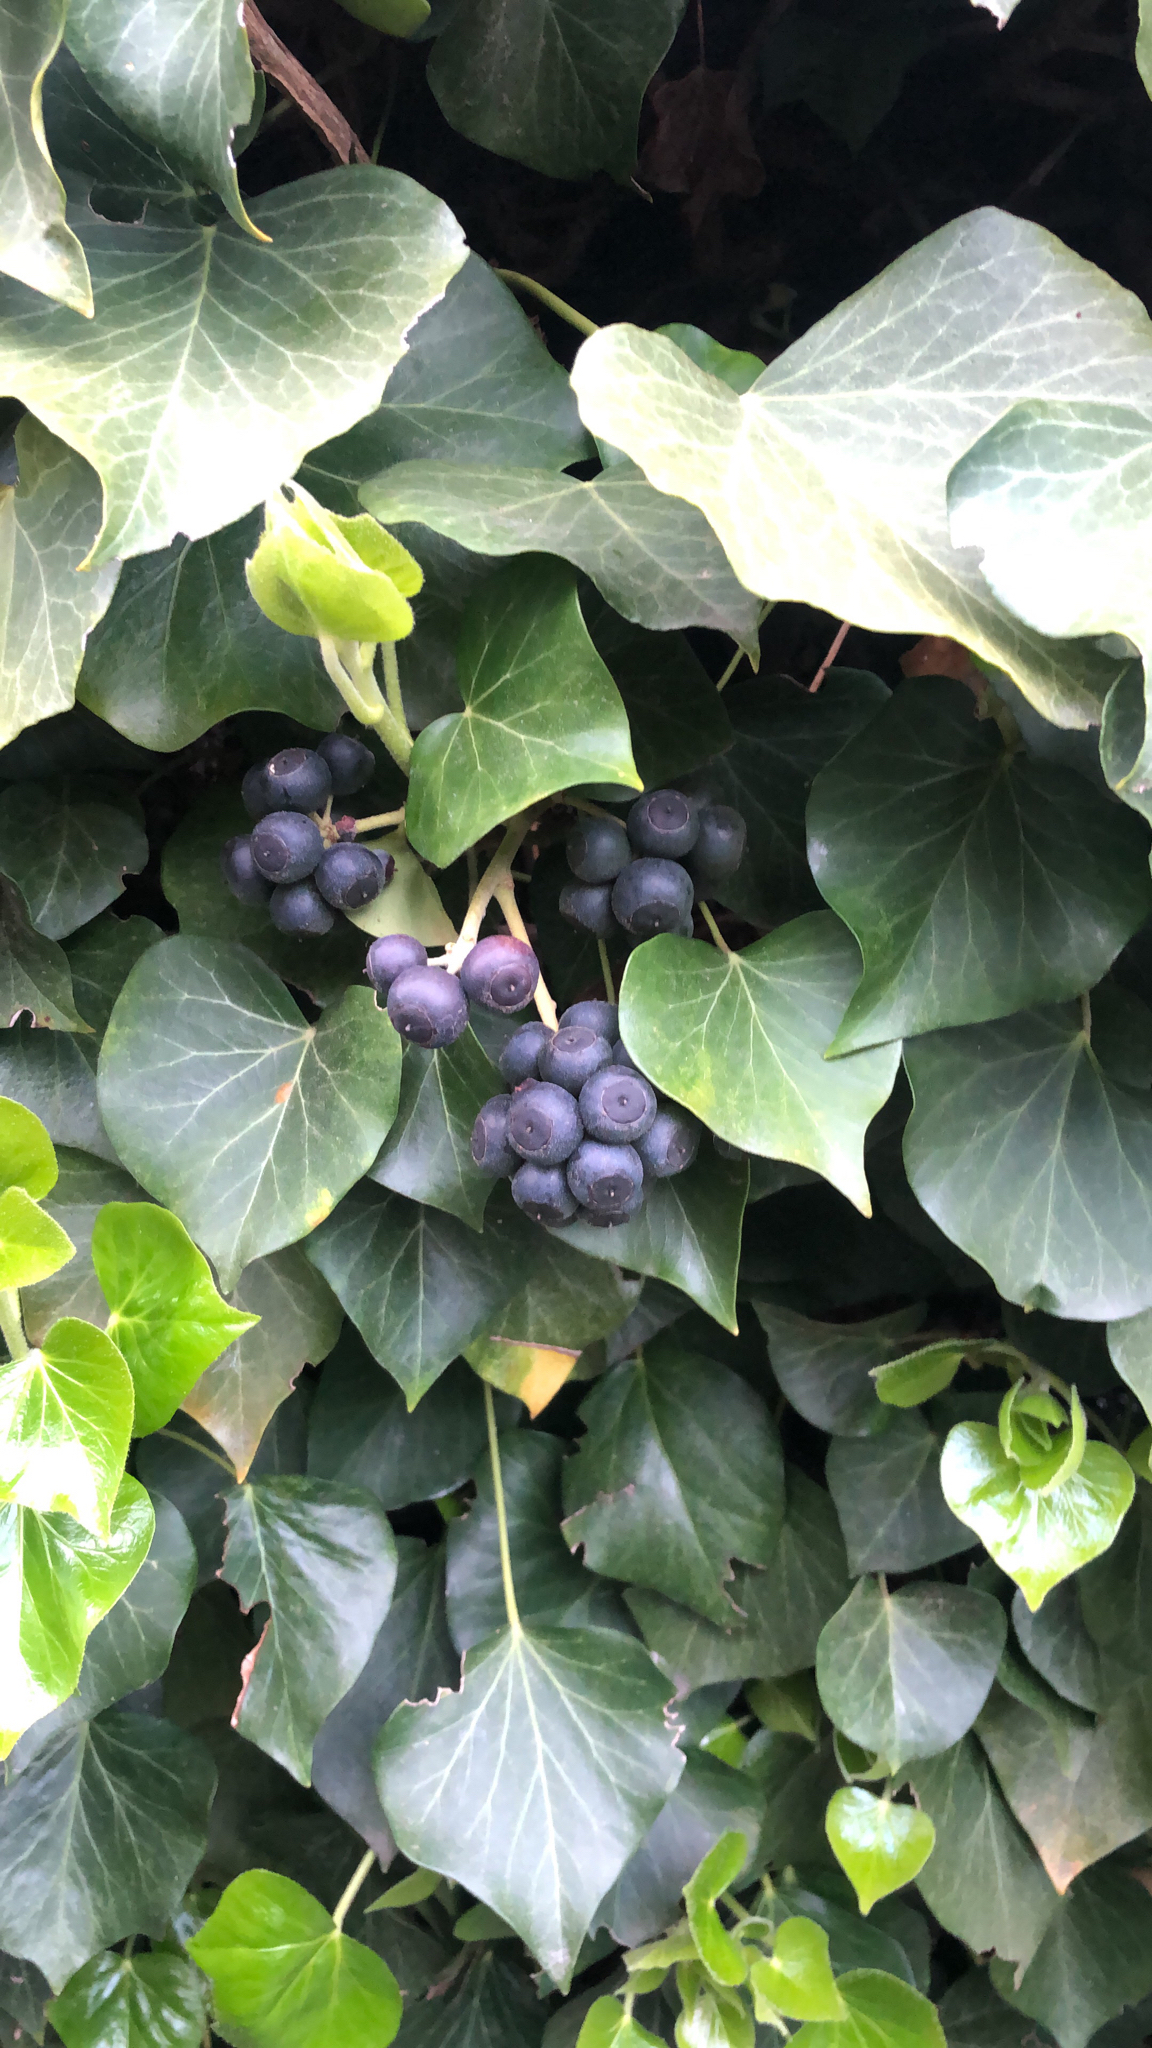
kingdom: Plantae
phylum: Tracheophyta
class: Magnoliopsida
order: Apiales
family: Araliaceae
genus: Hedera
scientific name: Hedera helix
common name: Ivy
